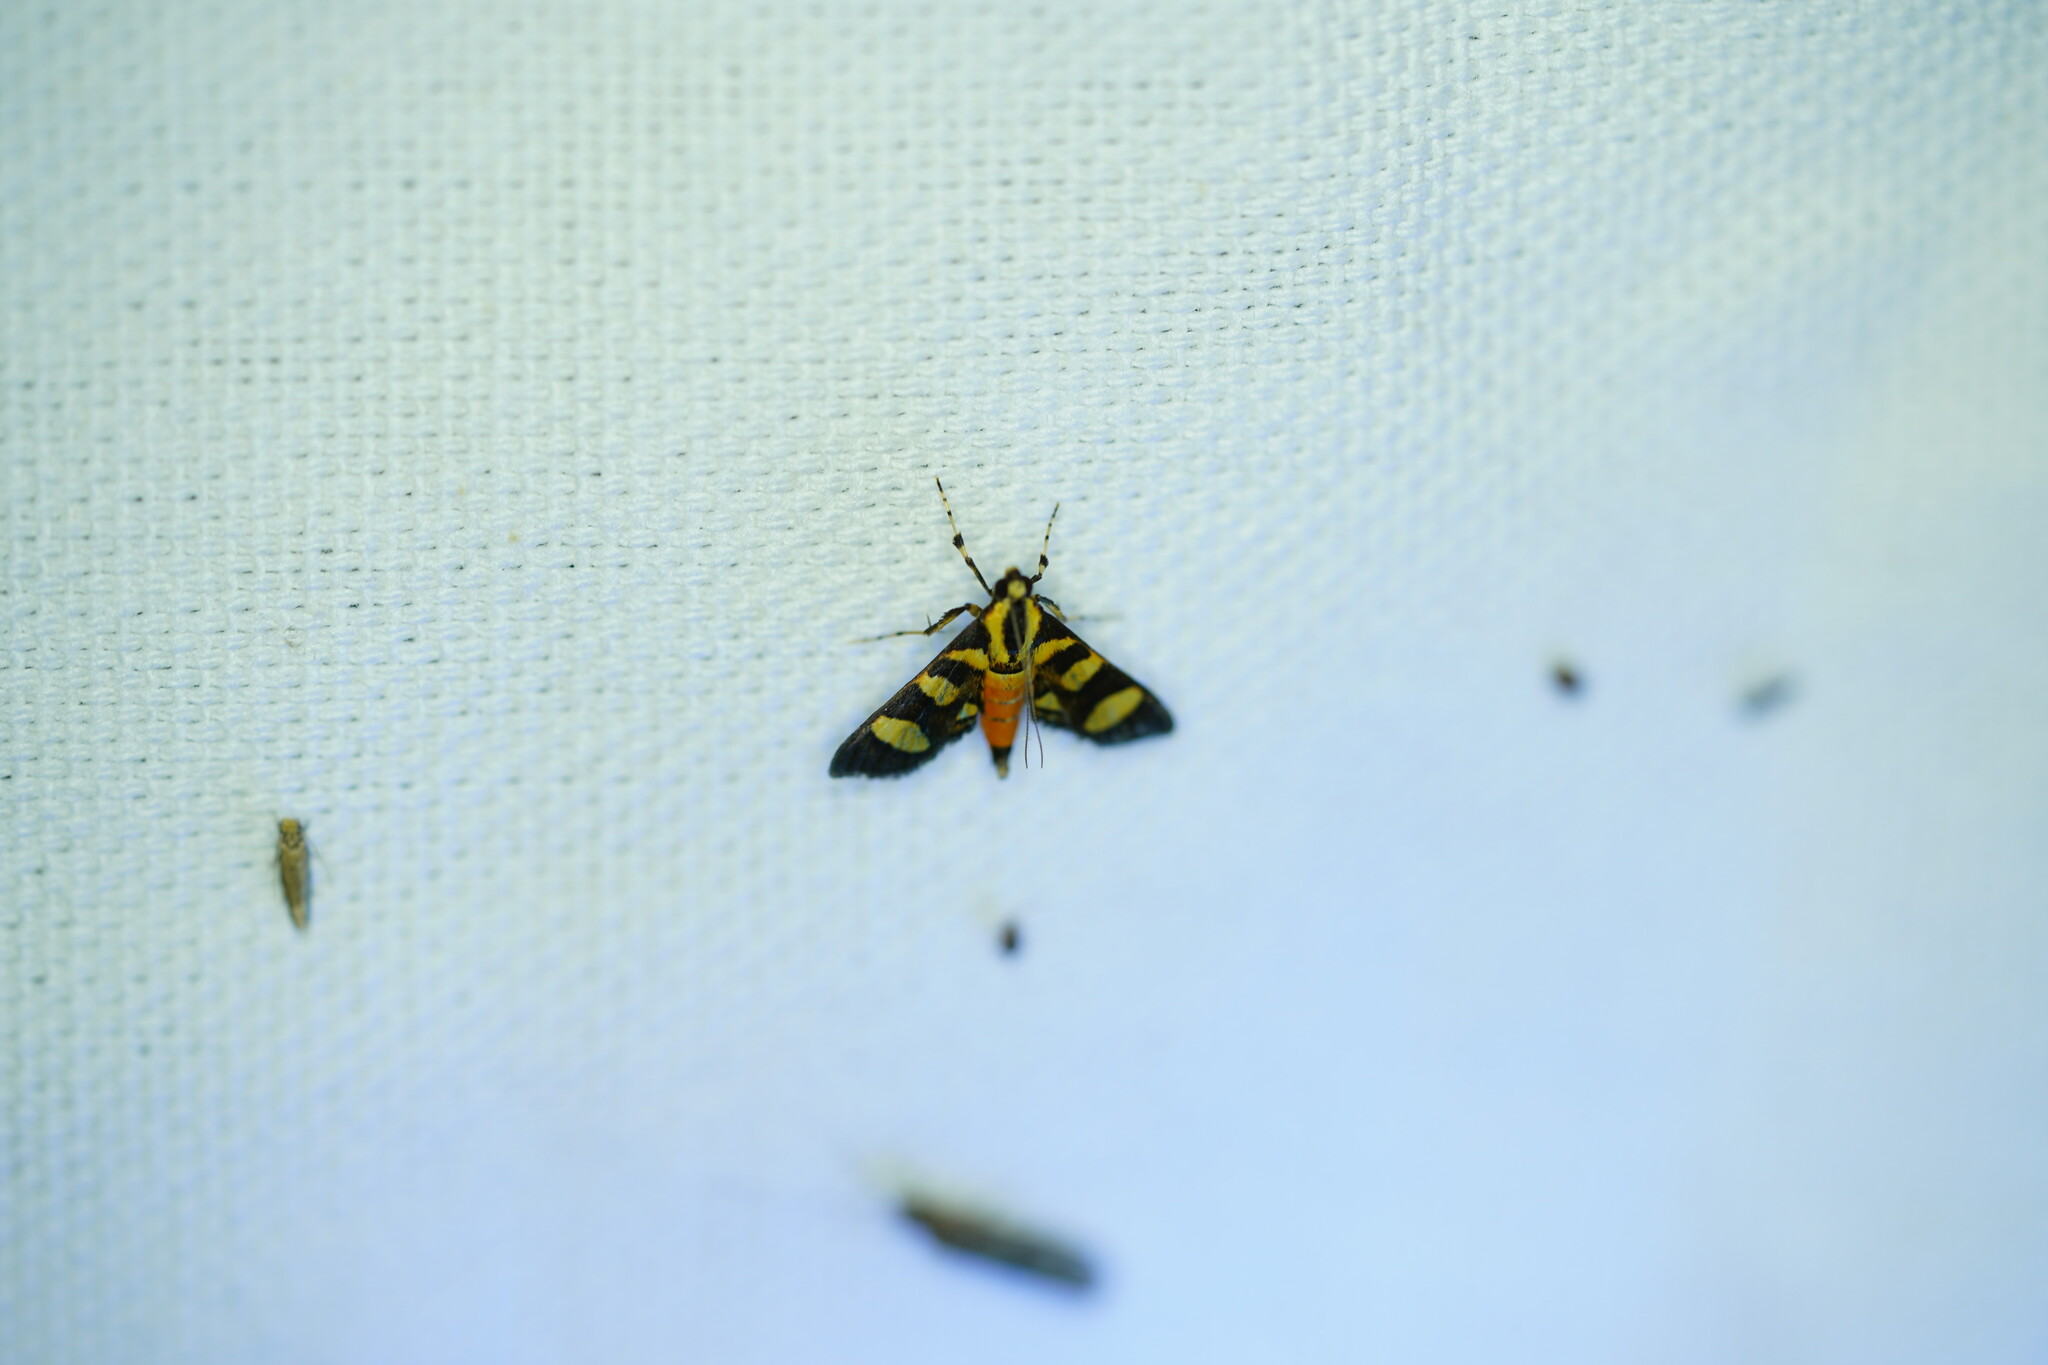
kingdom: Animalia
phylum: Arthropoda
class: Insecta
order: Lepidoptera
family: Crambidae
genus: Syngamia
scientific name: Syngamia florella
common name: Orange-spotted flower moth
